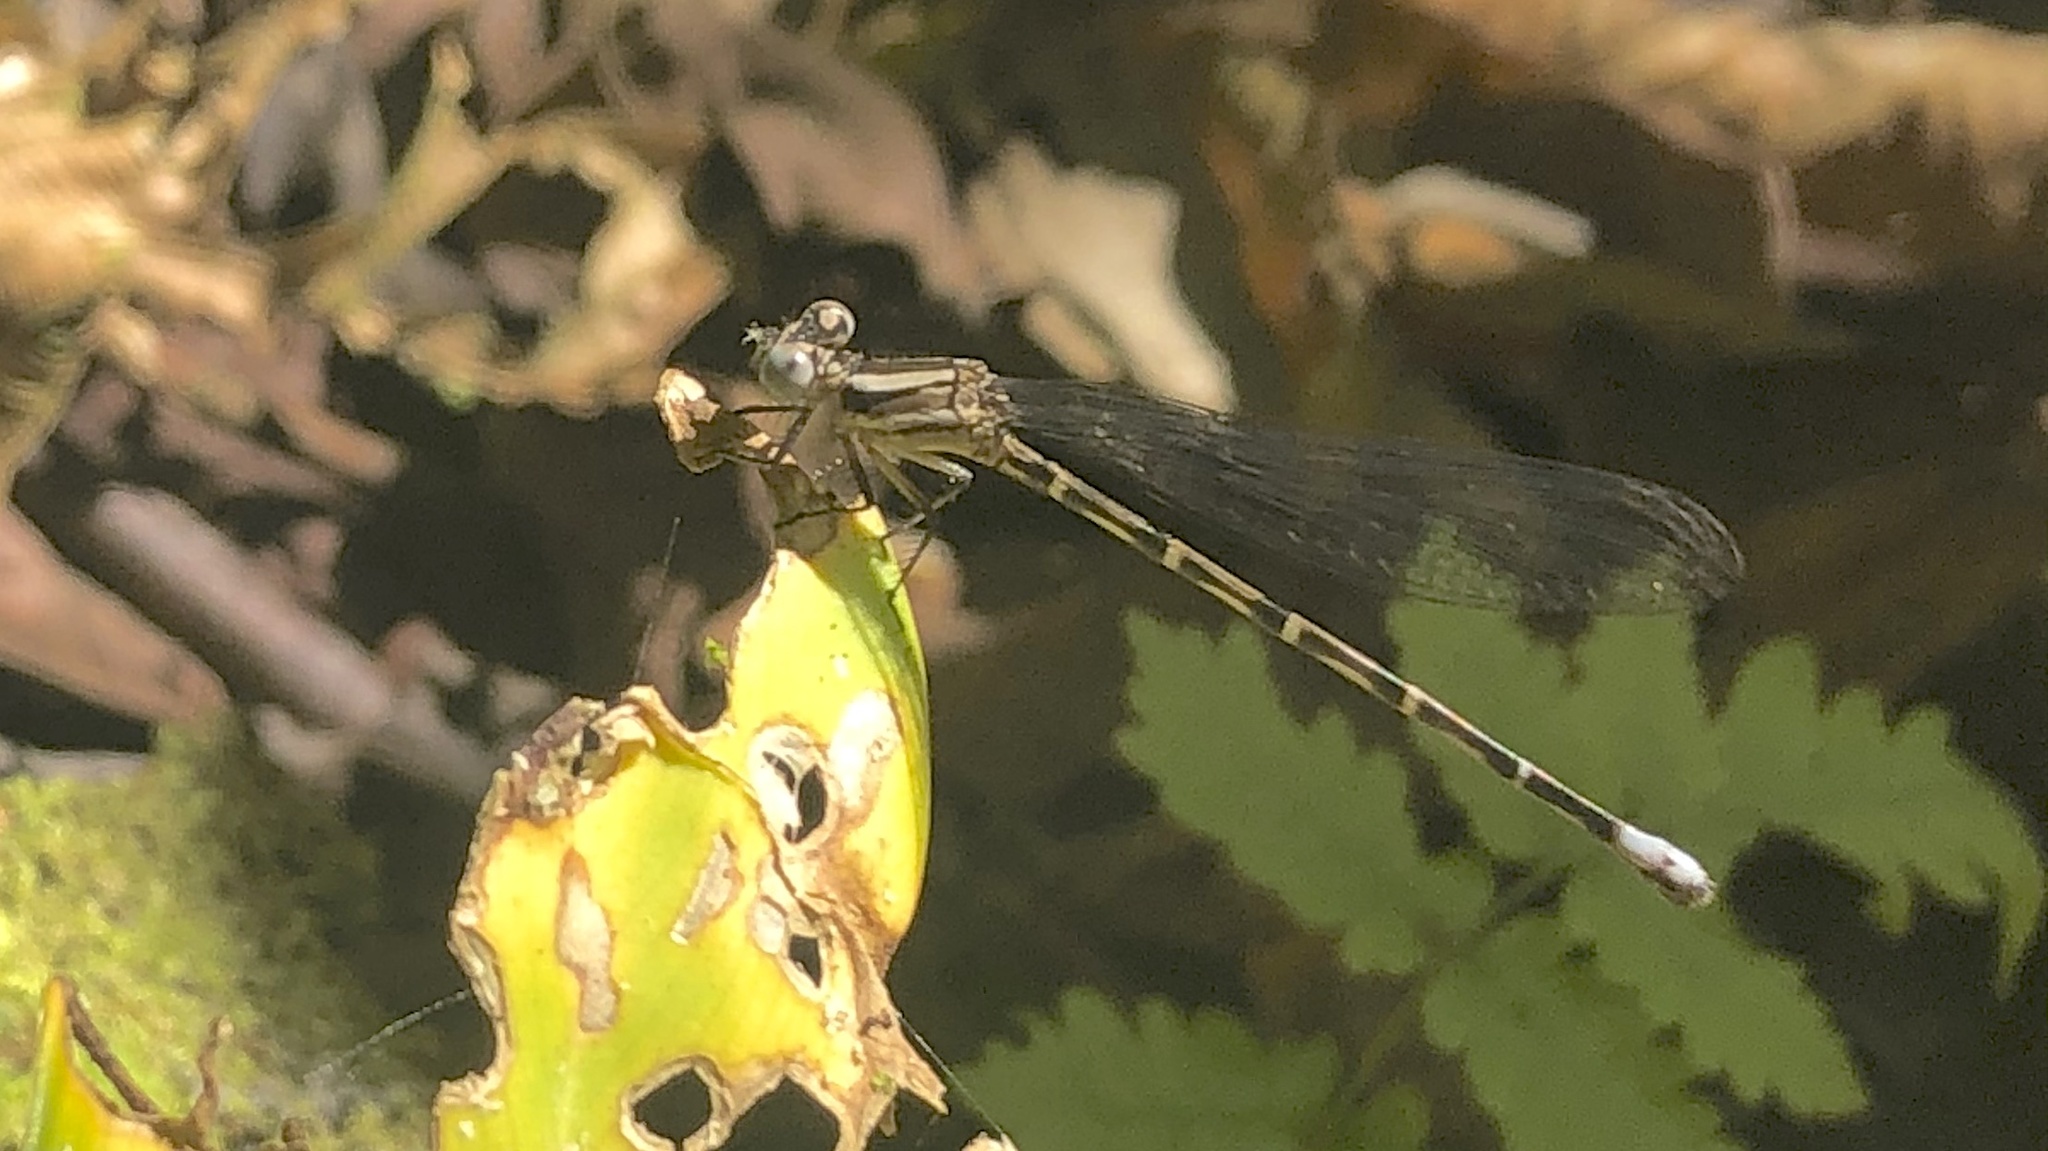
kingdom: Animalia
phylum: Arthropoda
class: Insecta
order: Odonata
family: Coenagrionidae
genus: Argia
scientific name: Argia elongata
